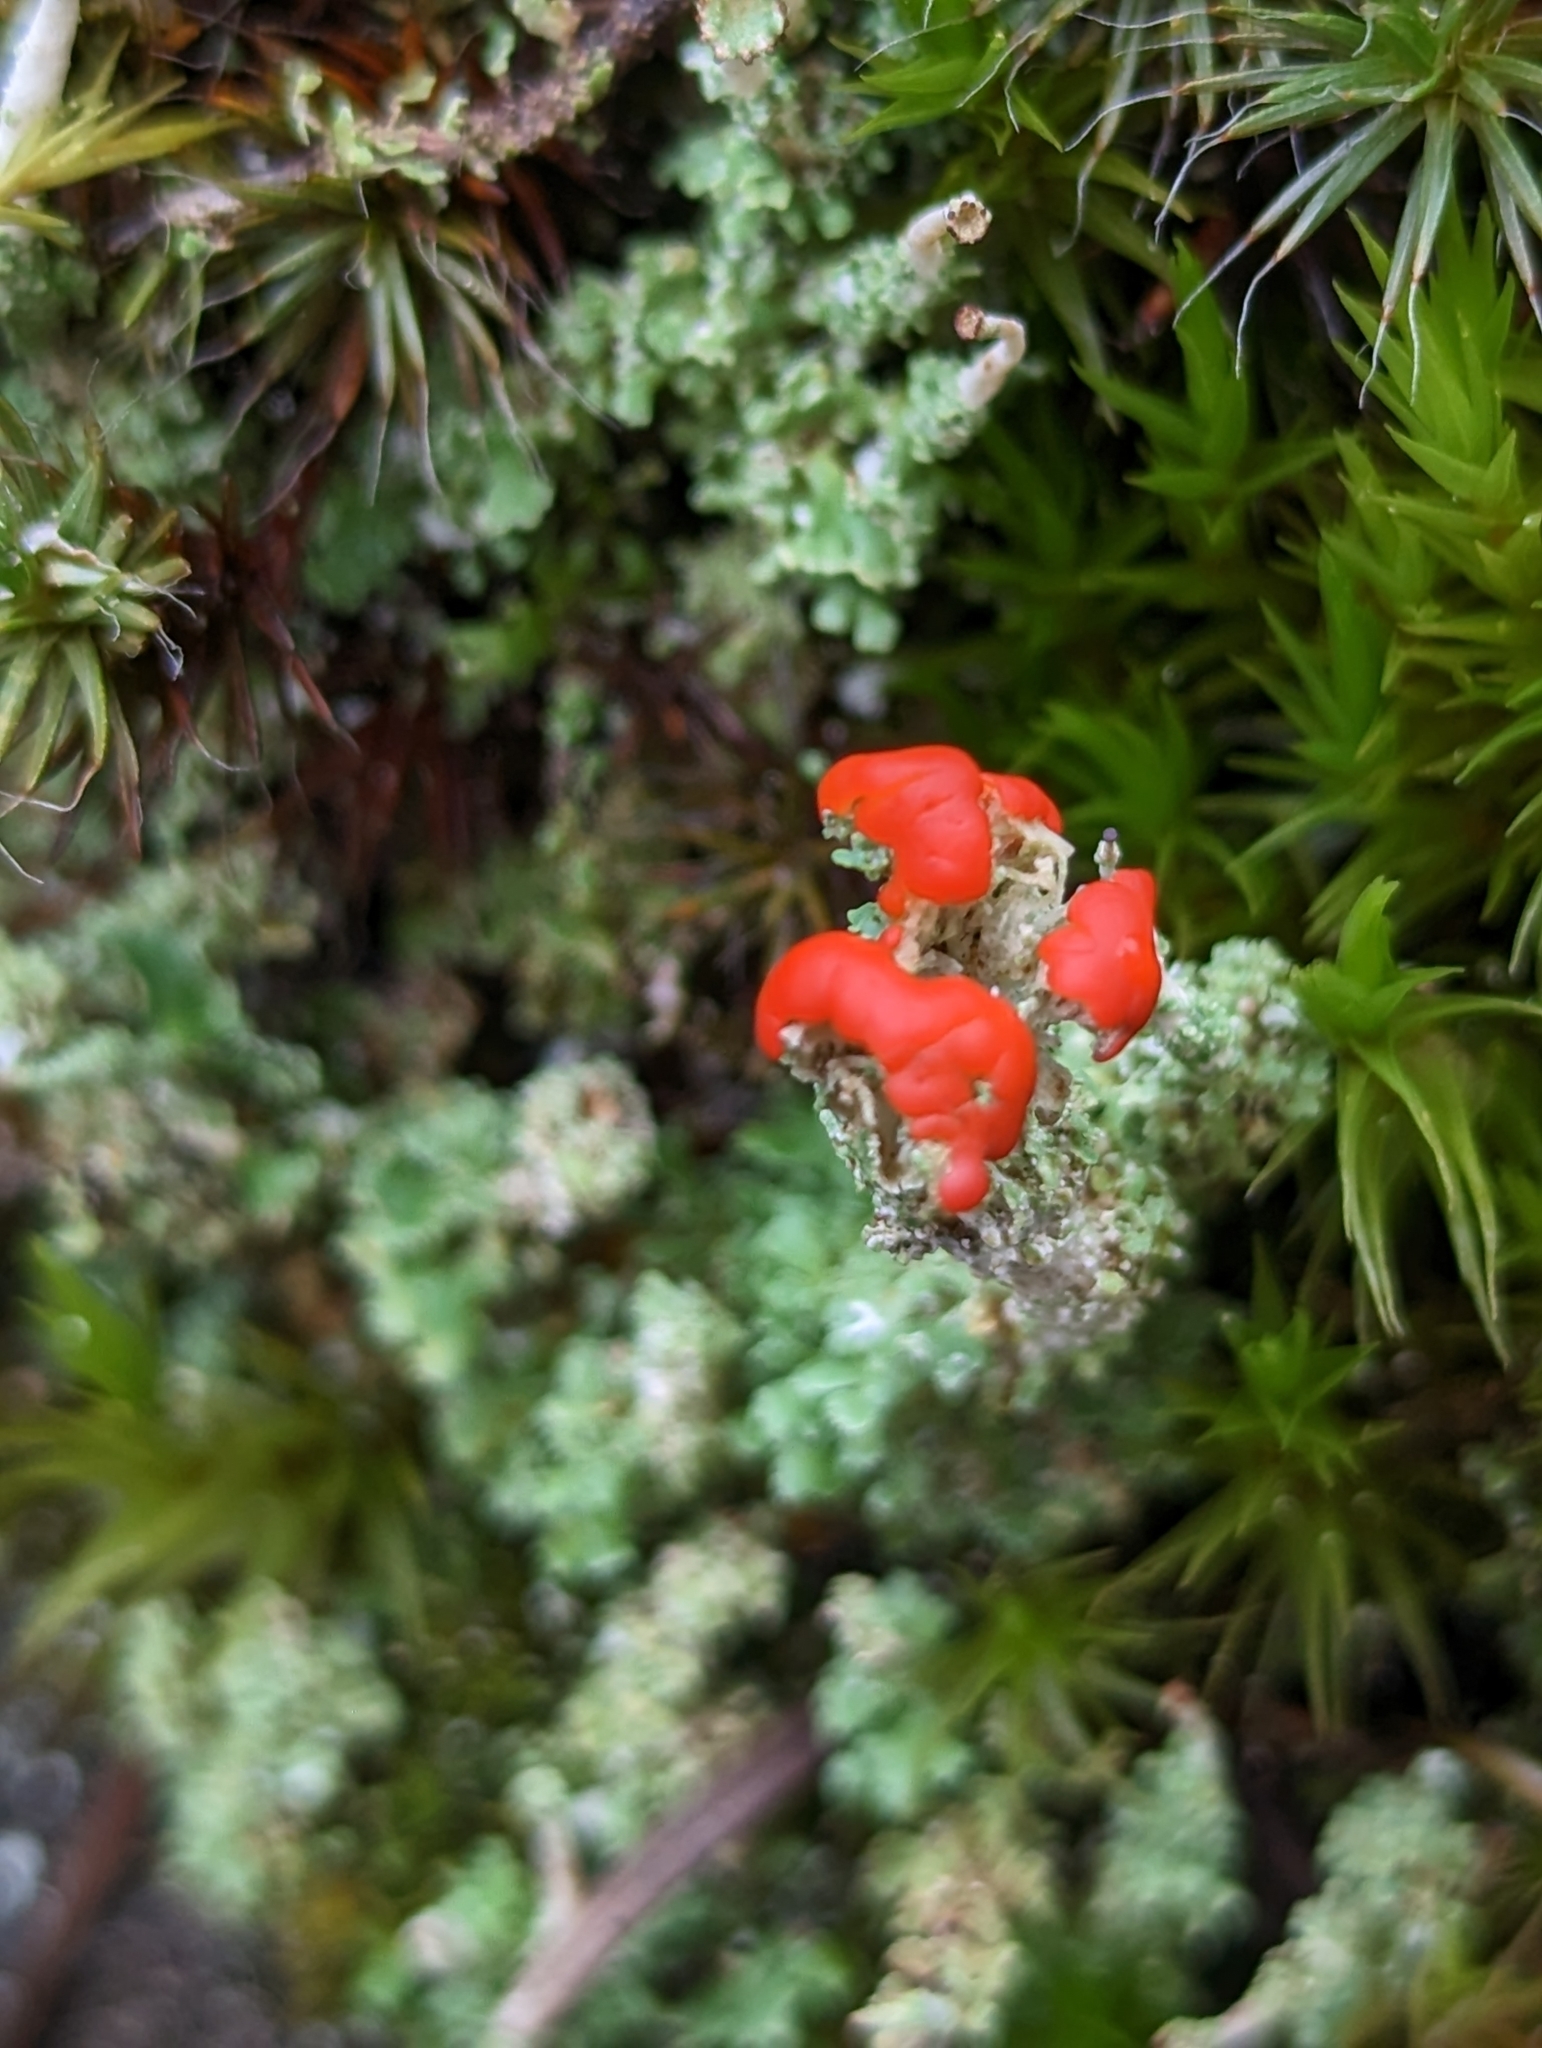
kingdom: Fungi
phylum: Ascomycota
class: Lecanoromycetes
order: Lecanorales
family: Cladoniaceae
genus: Cladonia
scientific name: Cladonia bellidiflora
